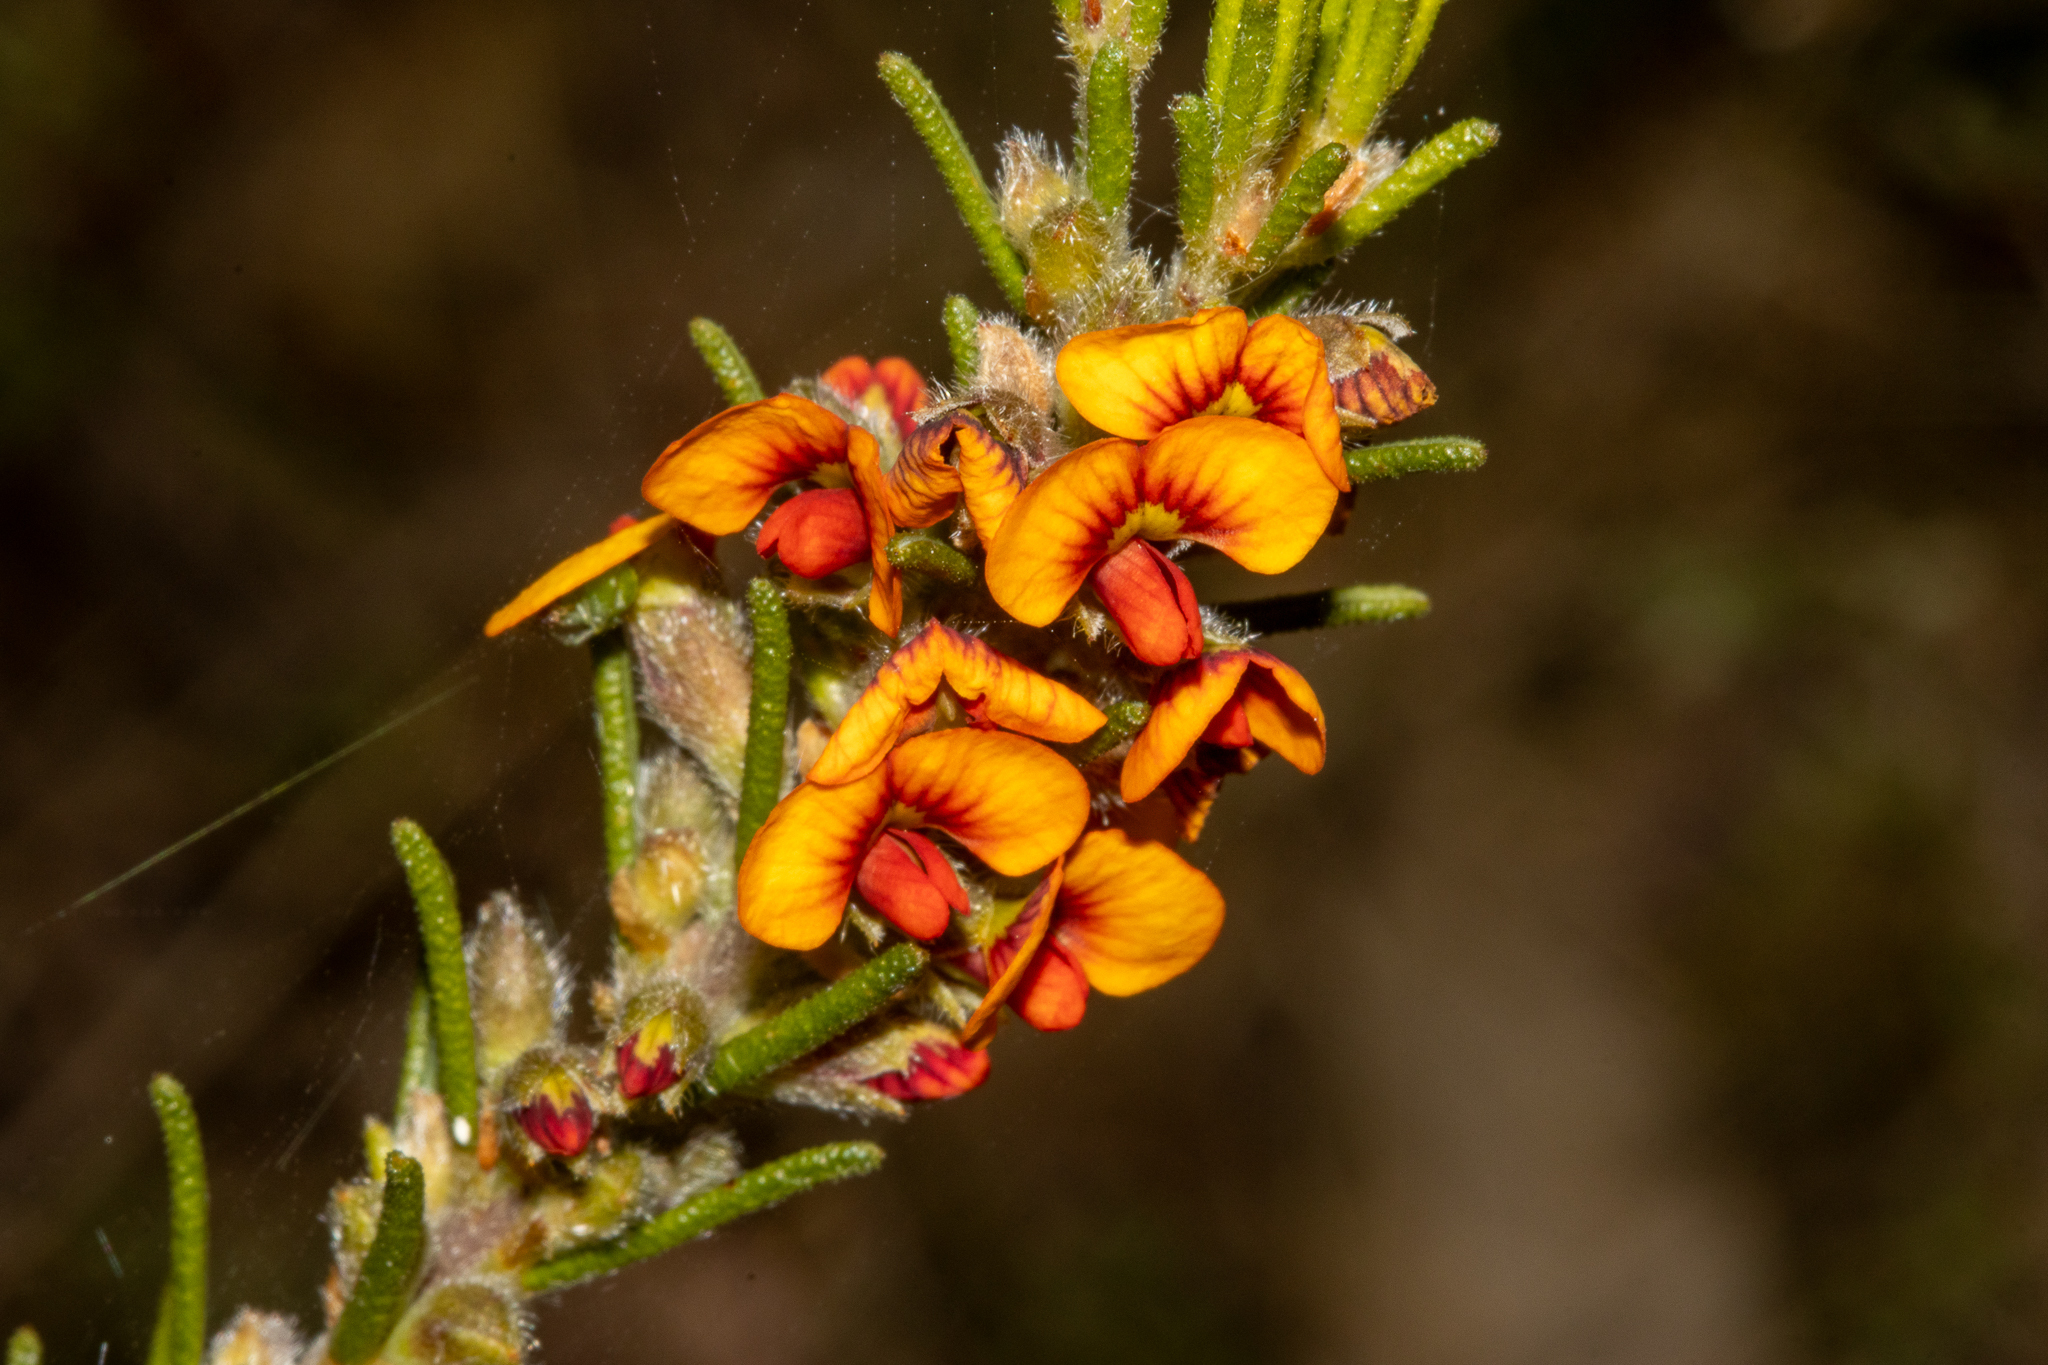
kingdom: Plantae
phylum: Tracheophyta
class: Magnoliopsida
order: Fabales
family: Fabaceae
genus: Dillwynia
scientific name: Dillwynia sericea
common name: Showy parrot-pea
